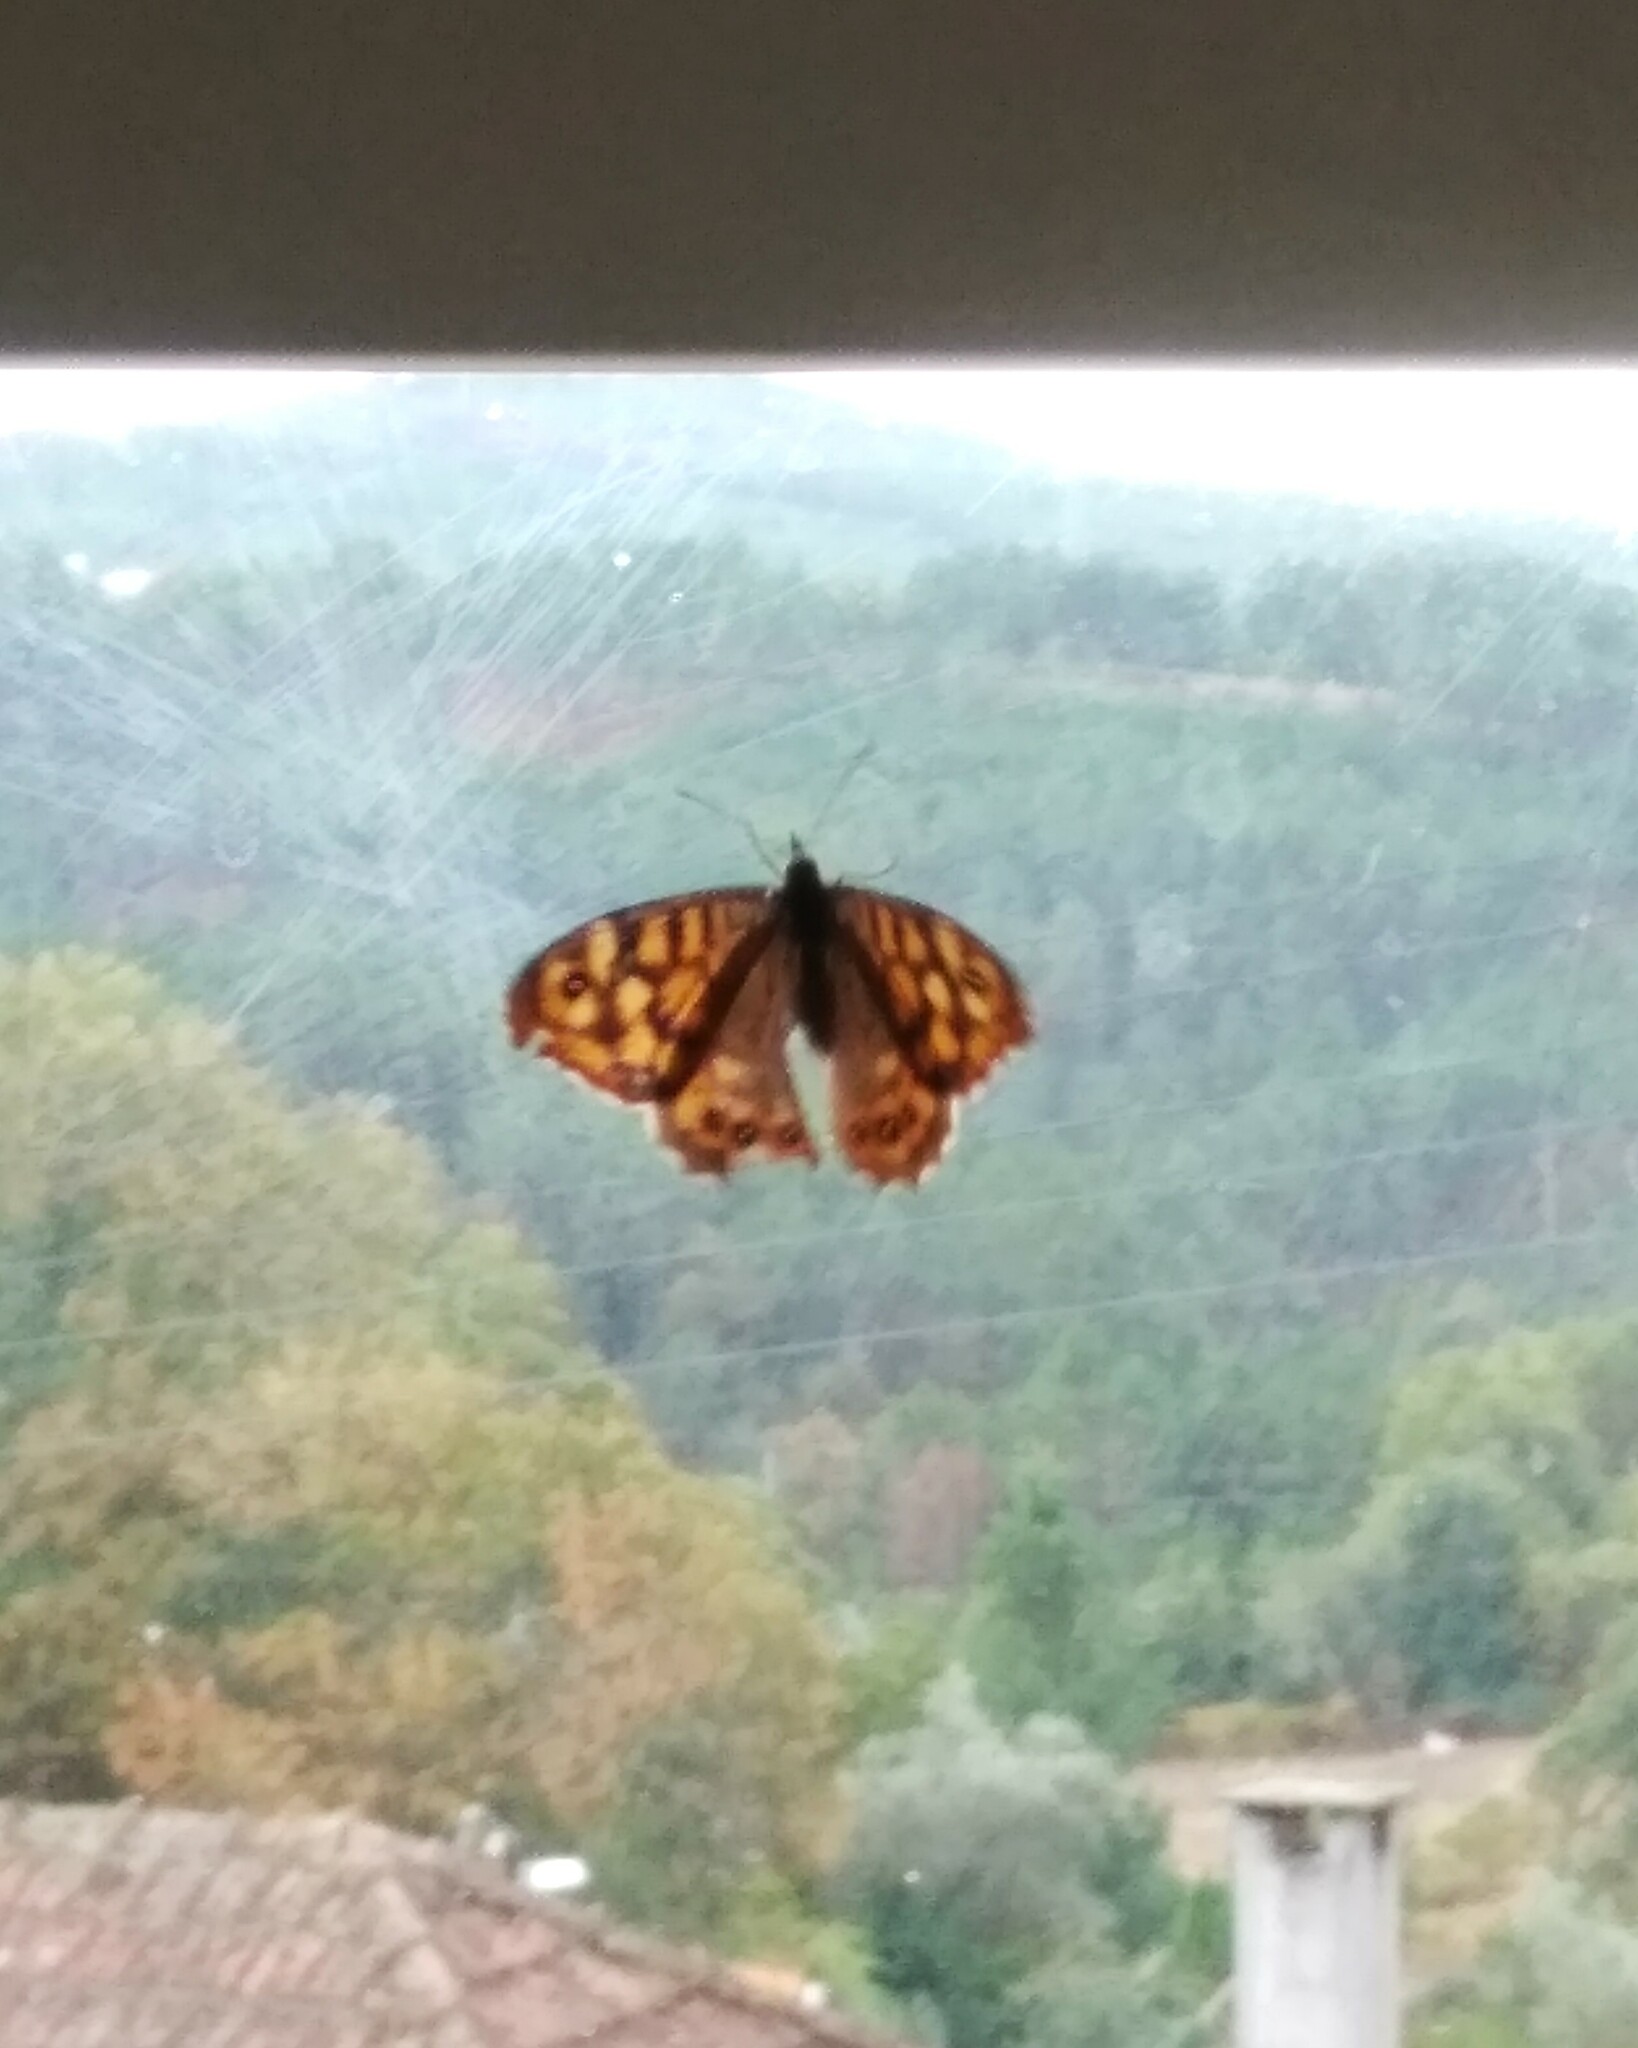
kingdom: Animalia
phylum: Arthropoda
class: Insecta
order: Lepidoptera
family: Nymphalidae
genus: Pararge
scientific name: Pararge aegeria
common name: Speckled wood
